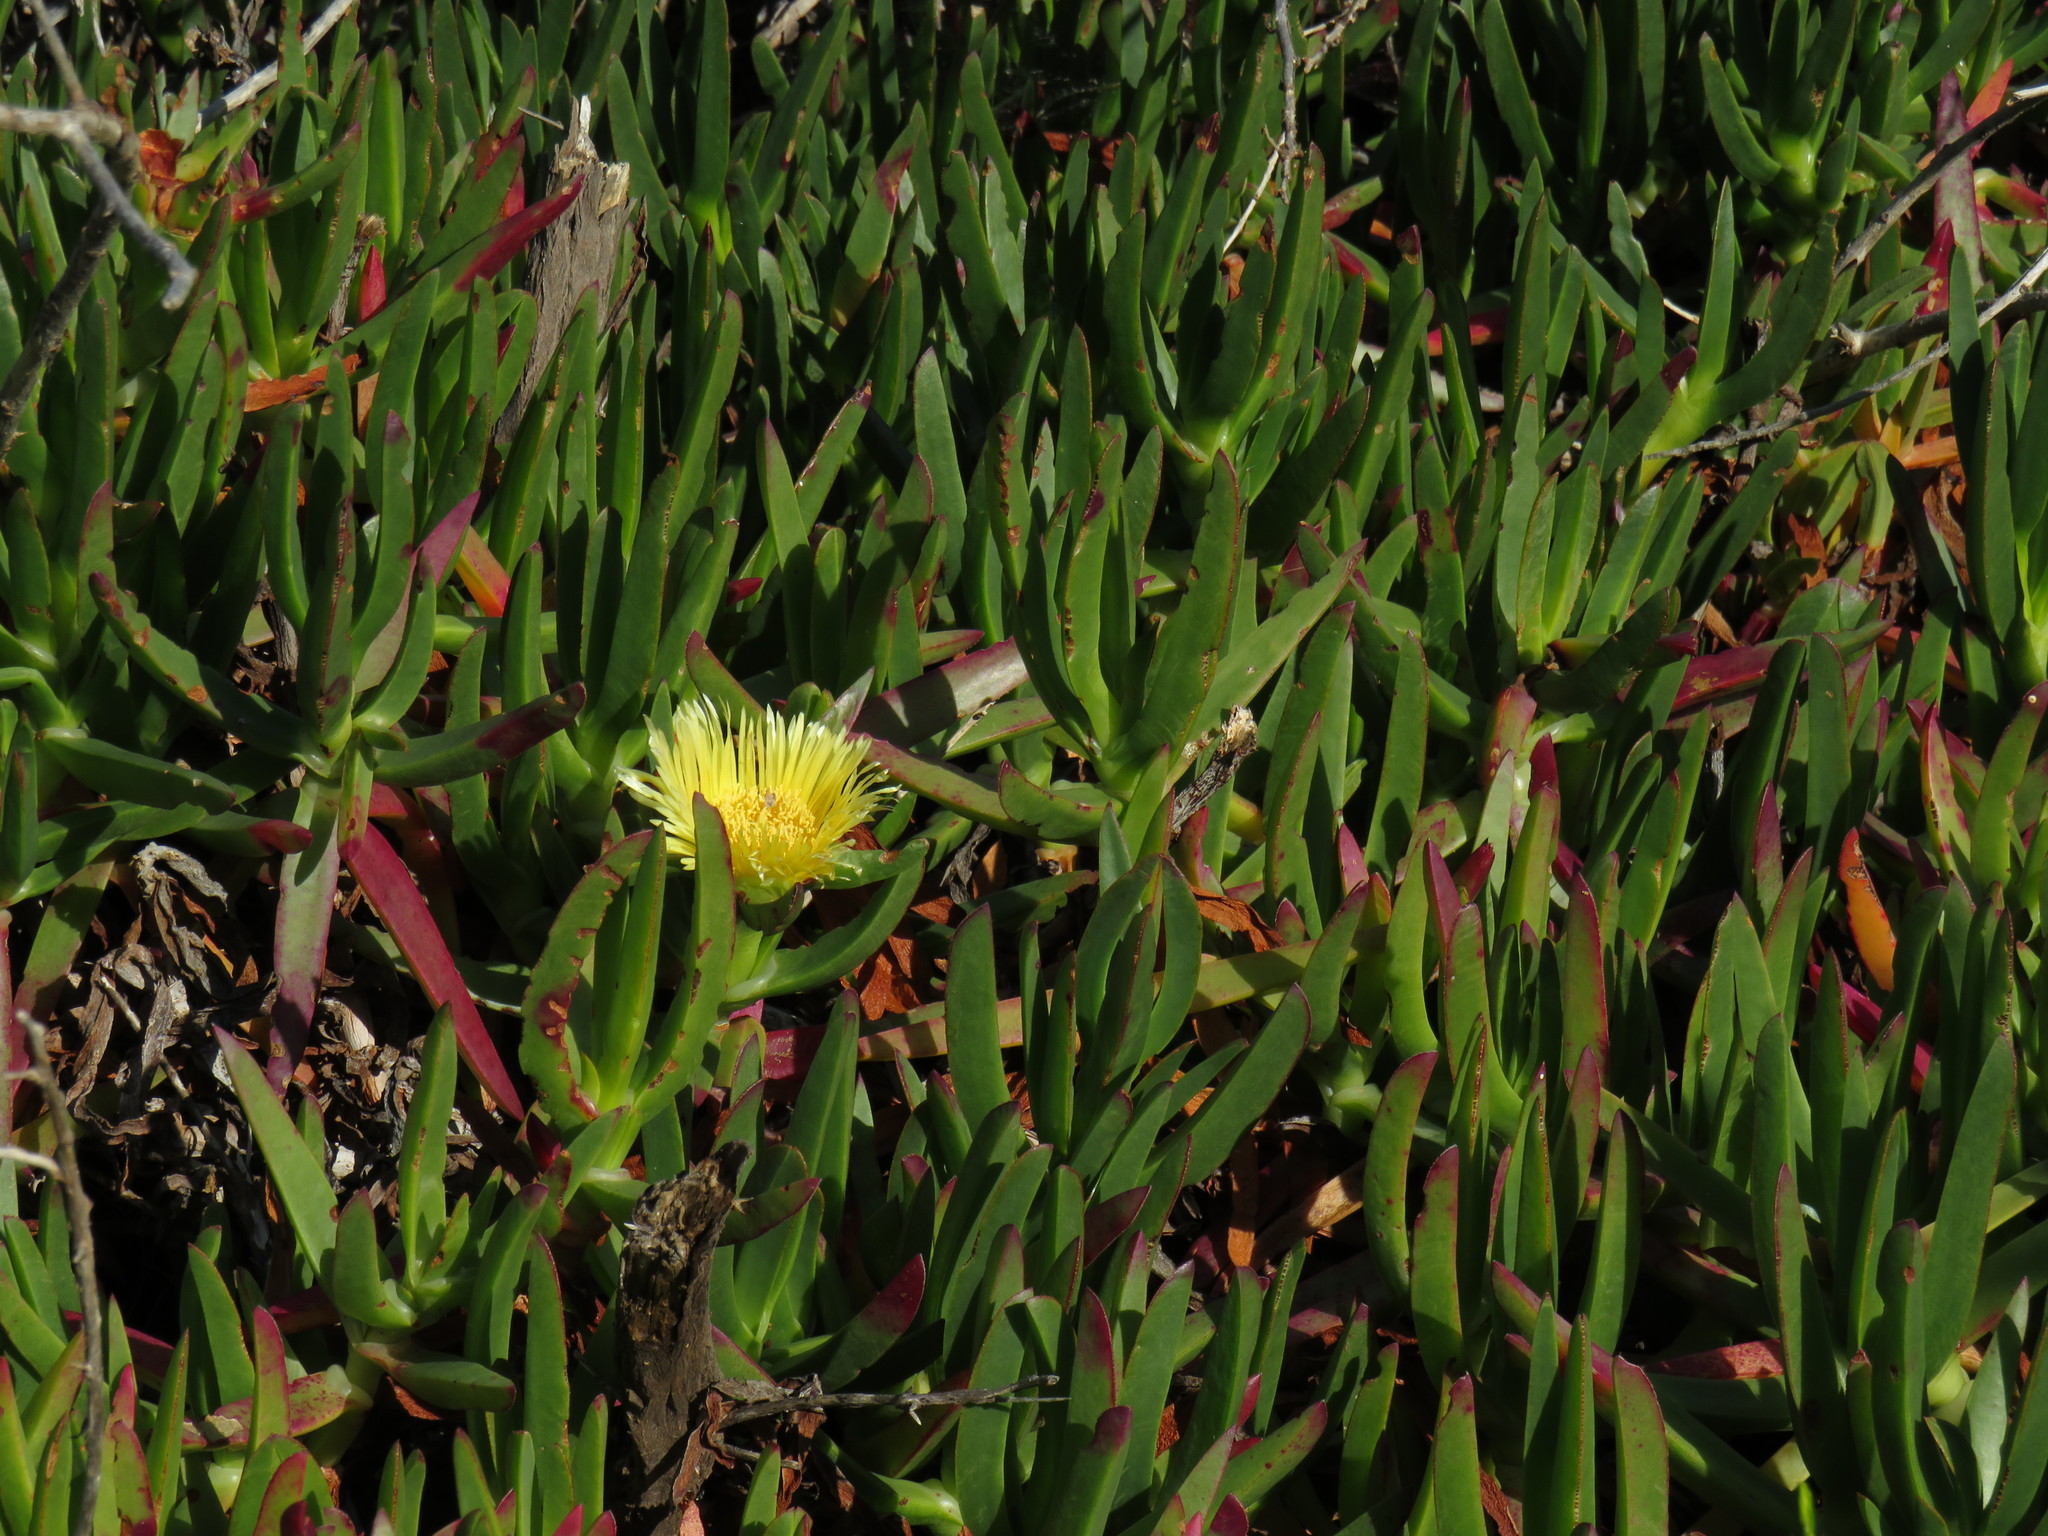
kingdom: Plantae
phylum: Tracheophyta
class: Magnoliopsida
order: Caryophyllales
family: Aizoaceae
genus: Carpobrotus
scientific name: Carpobrotus edulis
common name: Hottentot-fig
